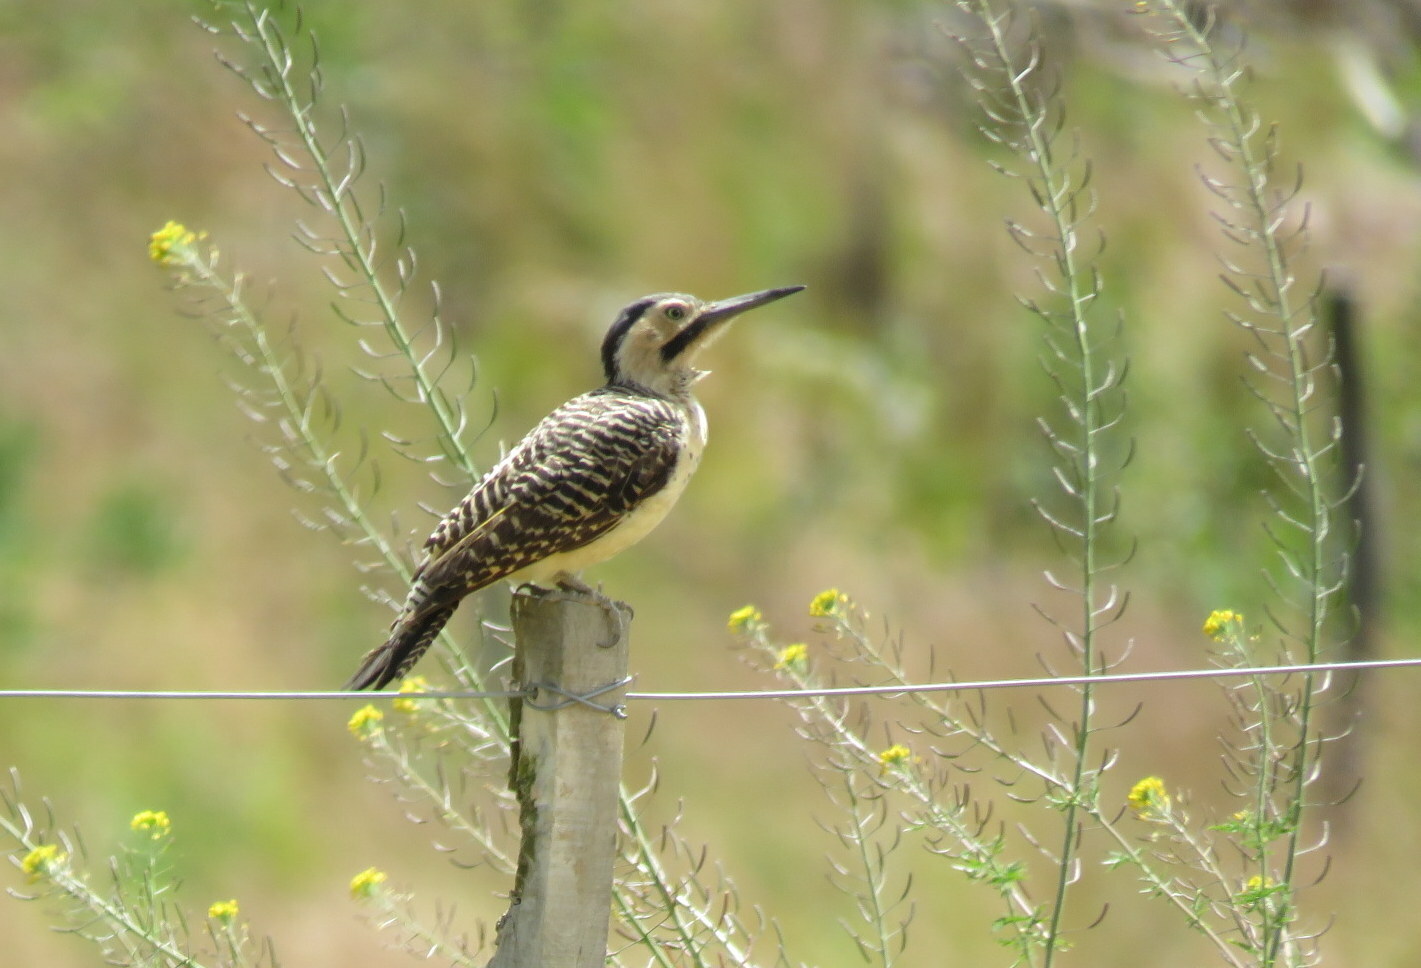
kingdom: Animalia
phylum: Chordata
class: Aves
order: Piciformes
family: Picidae
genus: Colaptes
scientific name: Colaptes rupicola
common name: Andean flicker
